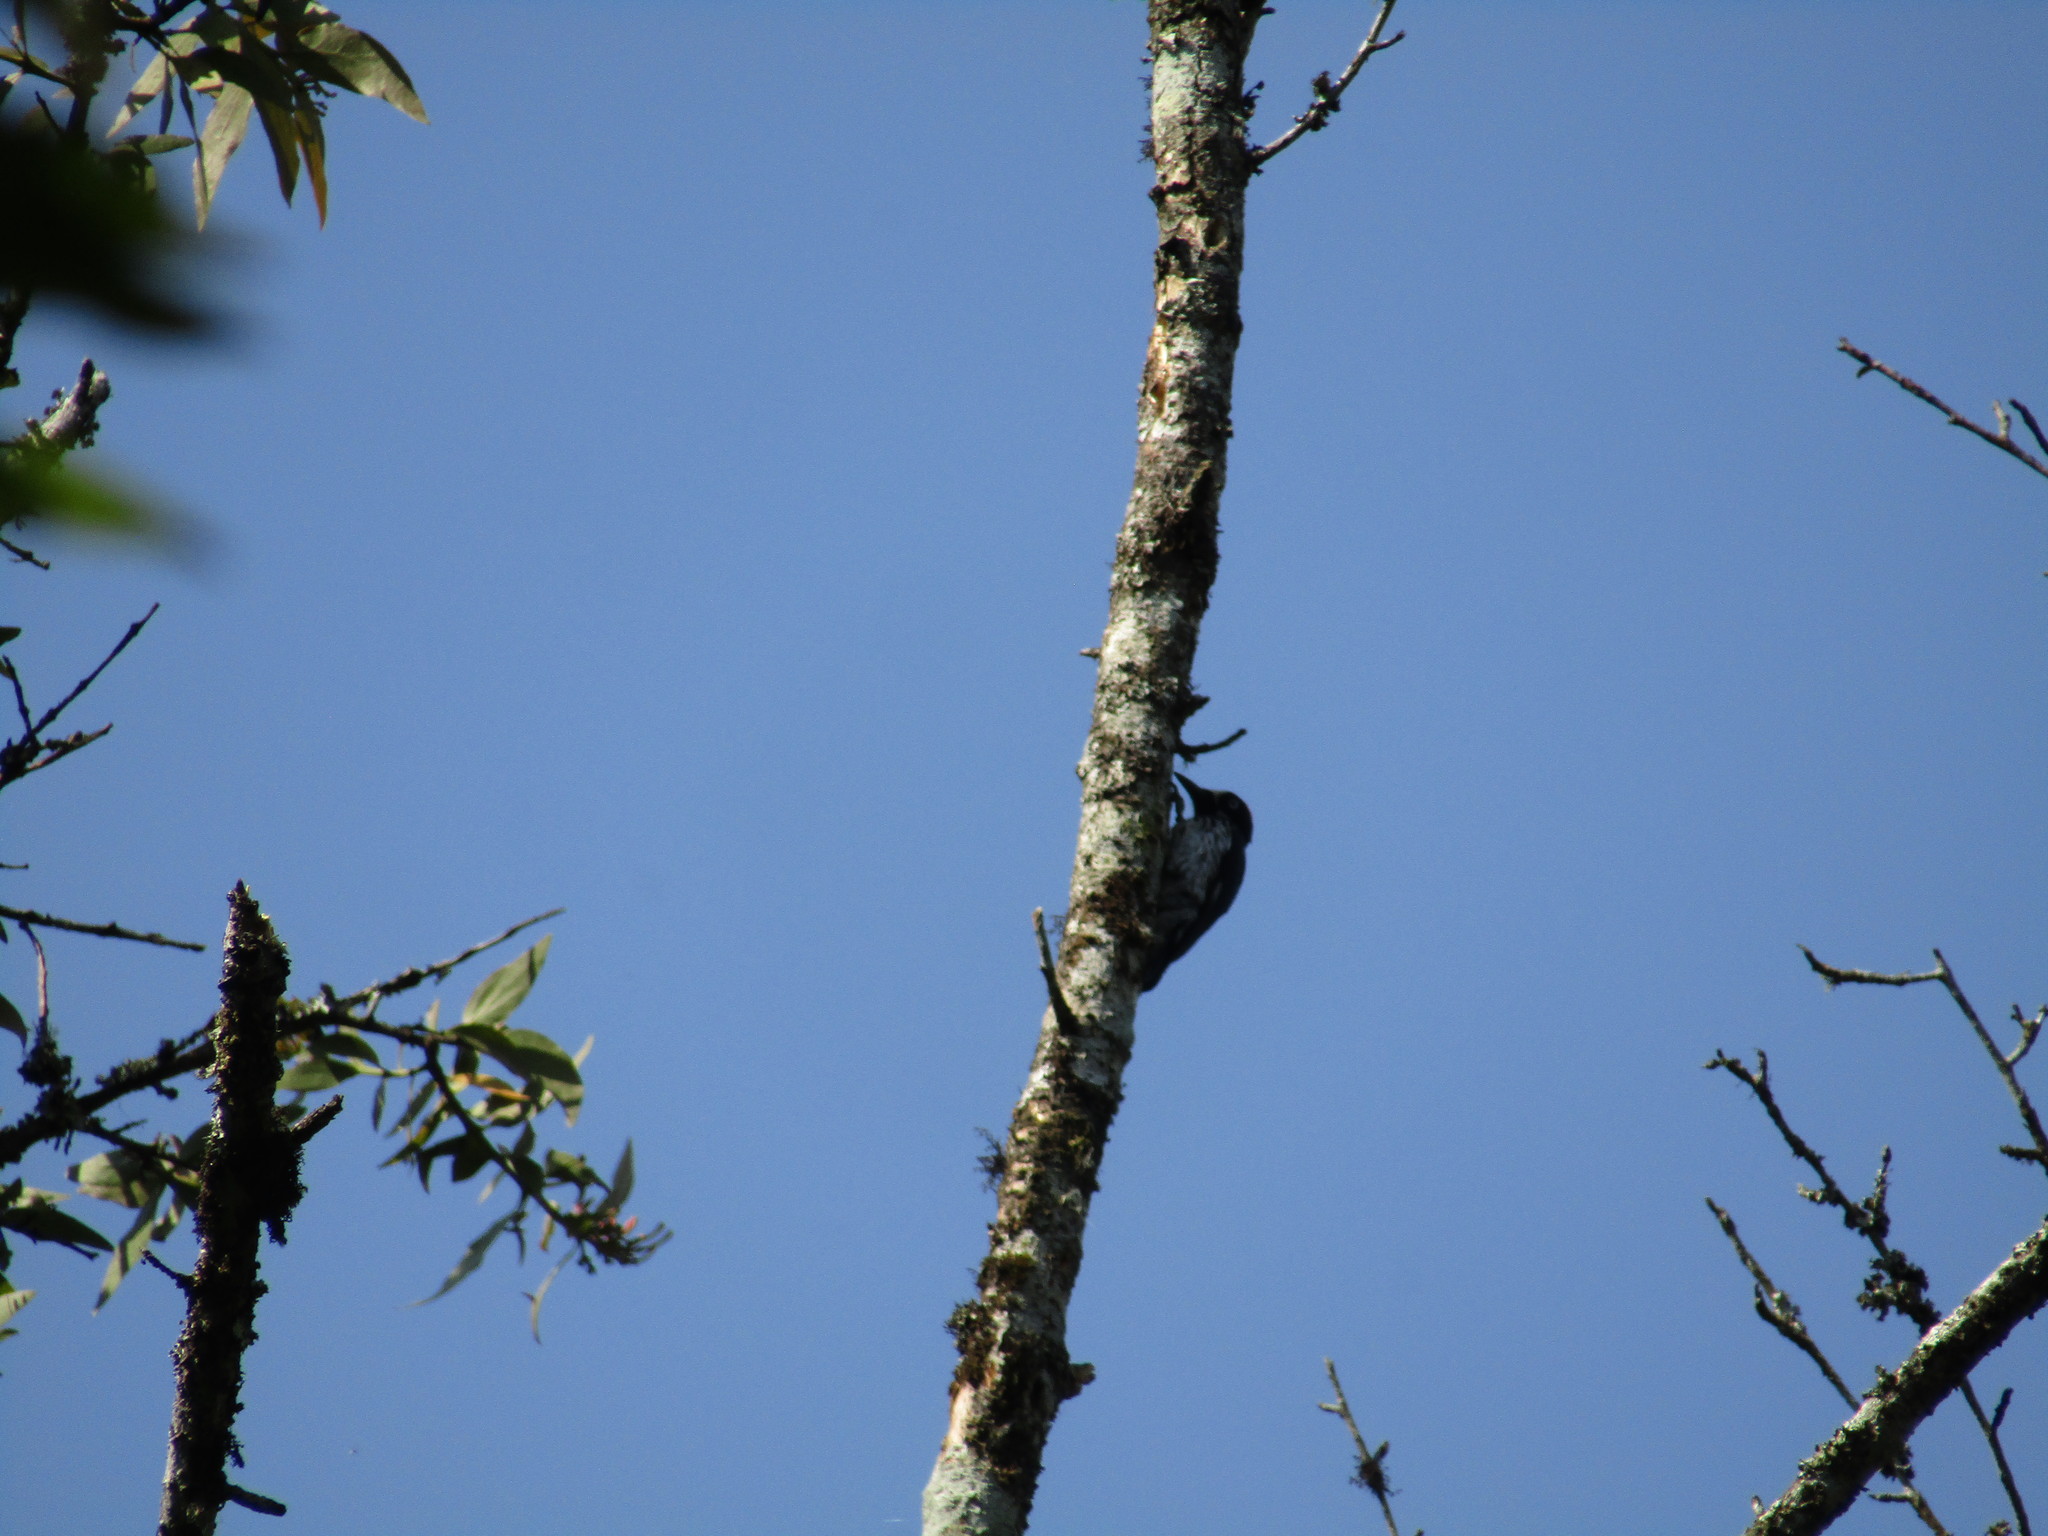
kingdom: Animalia
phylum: Chordata
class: Aves
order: Piciformes
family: Picidae
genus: Melanerpes
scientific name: Melanerpes formicivorus
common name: Acorn woodpecker
